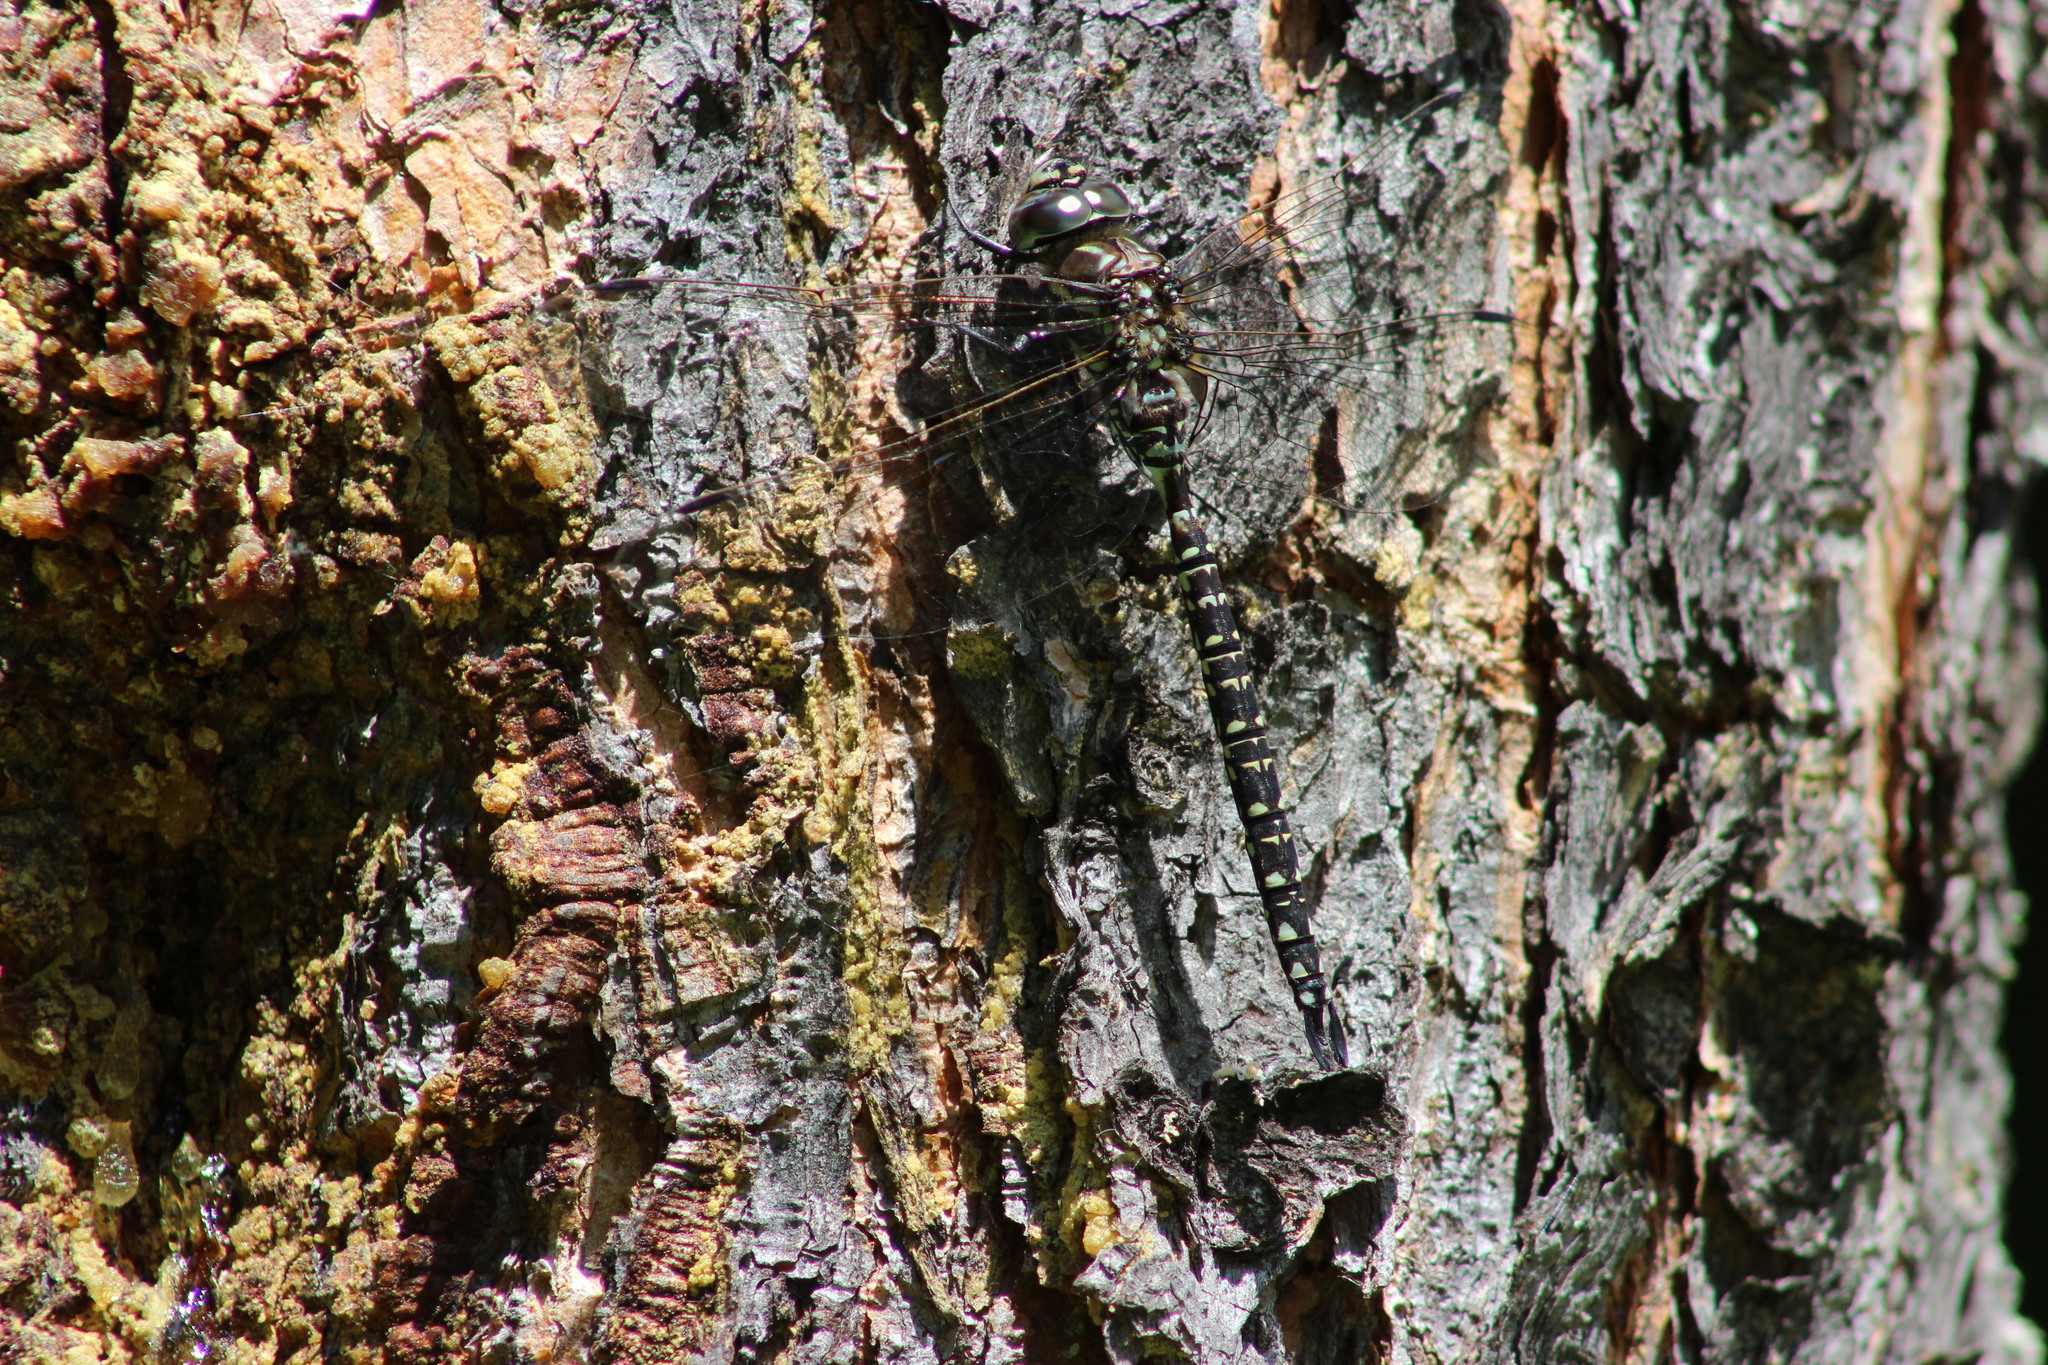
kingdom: Animalia
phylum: Arthropoda
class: Insecta
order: Odonata
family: Aeshnidae
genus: Aeshna
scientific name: Aeshna subarctica
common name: Subarctic darner
